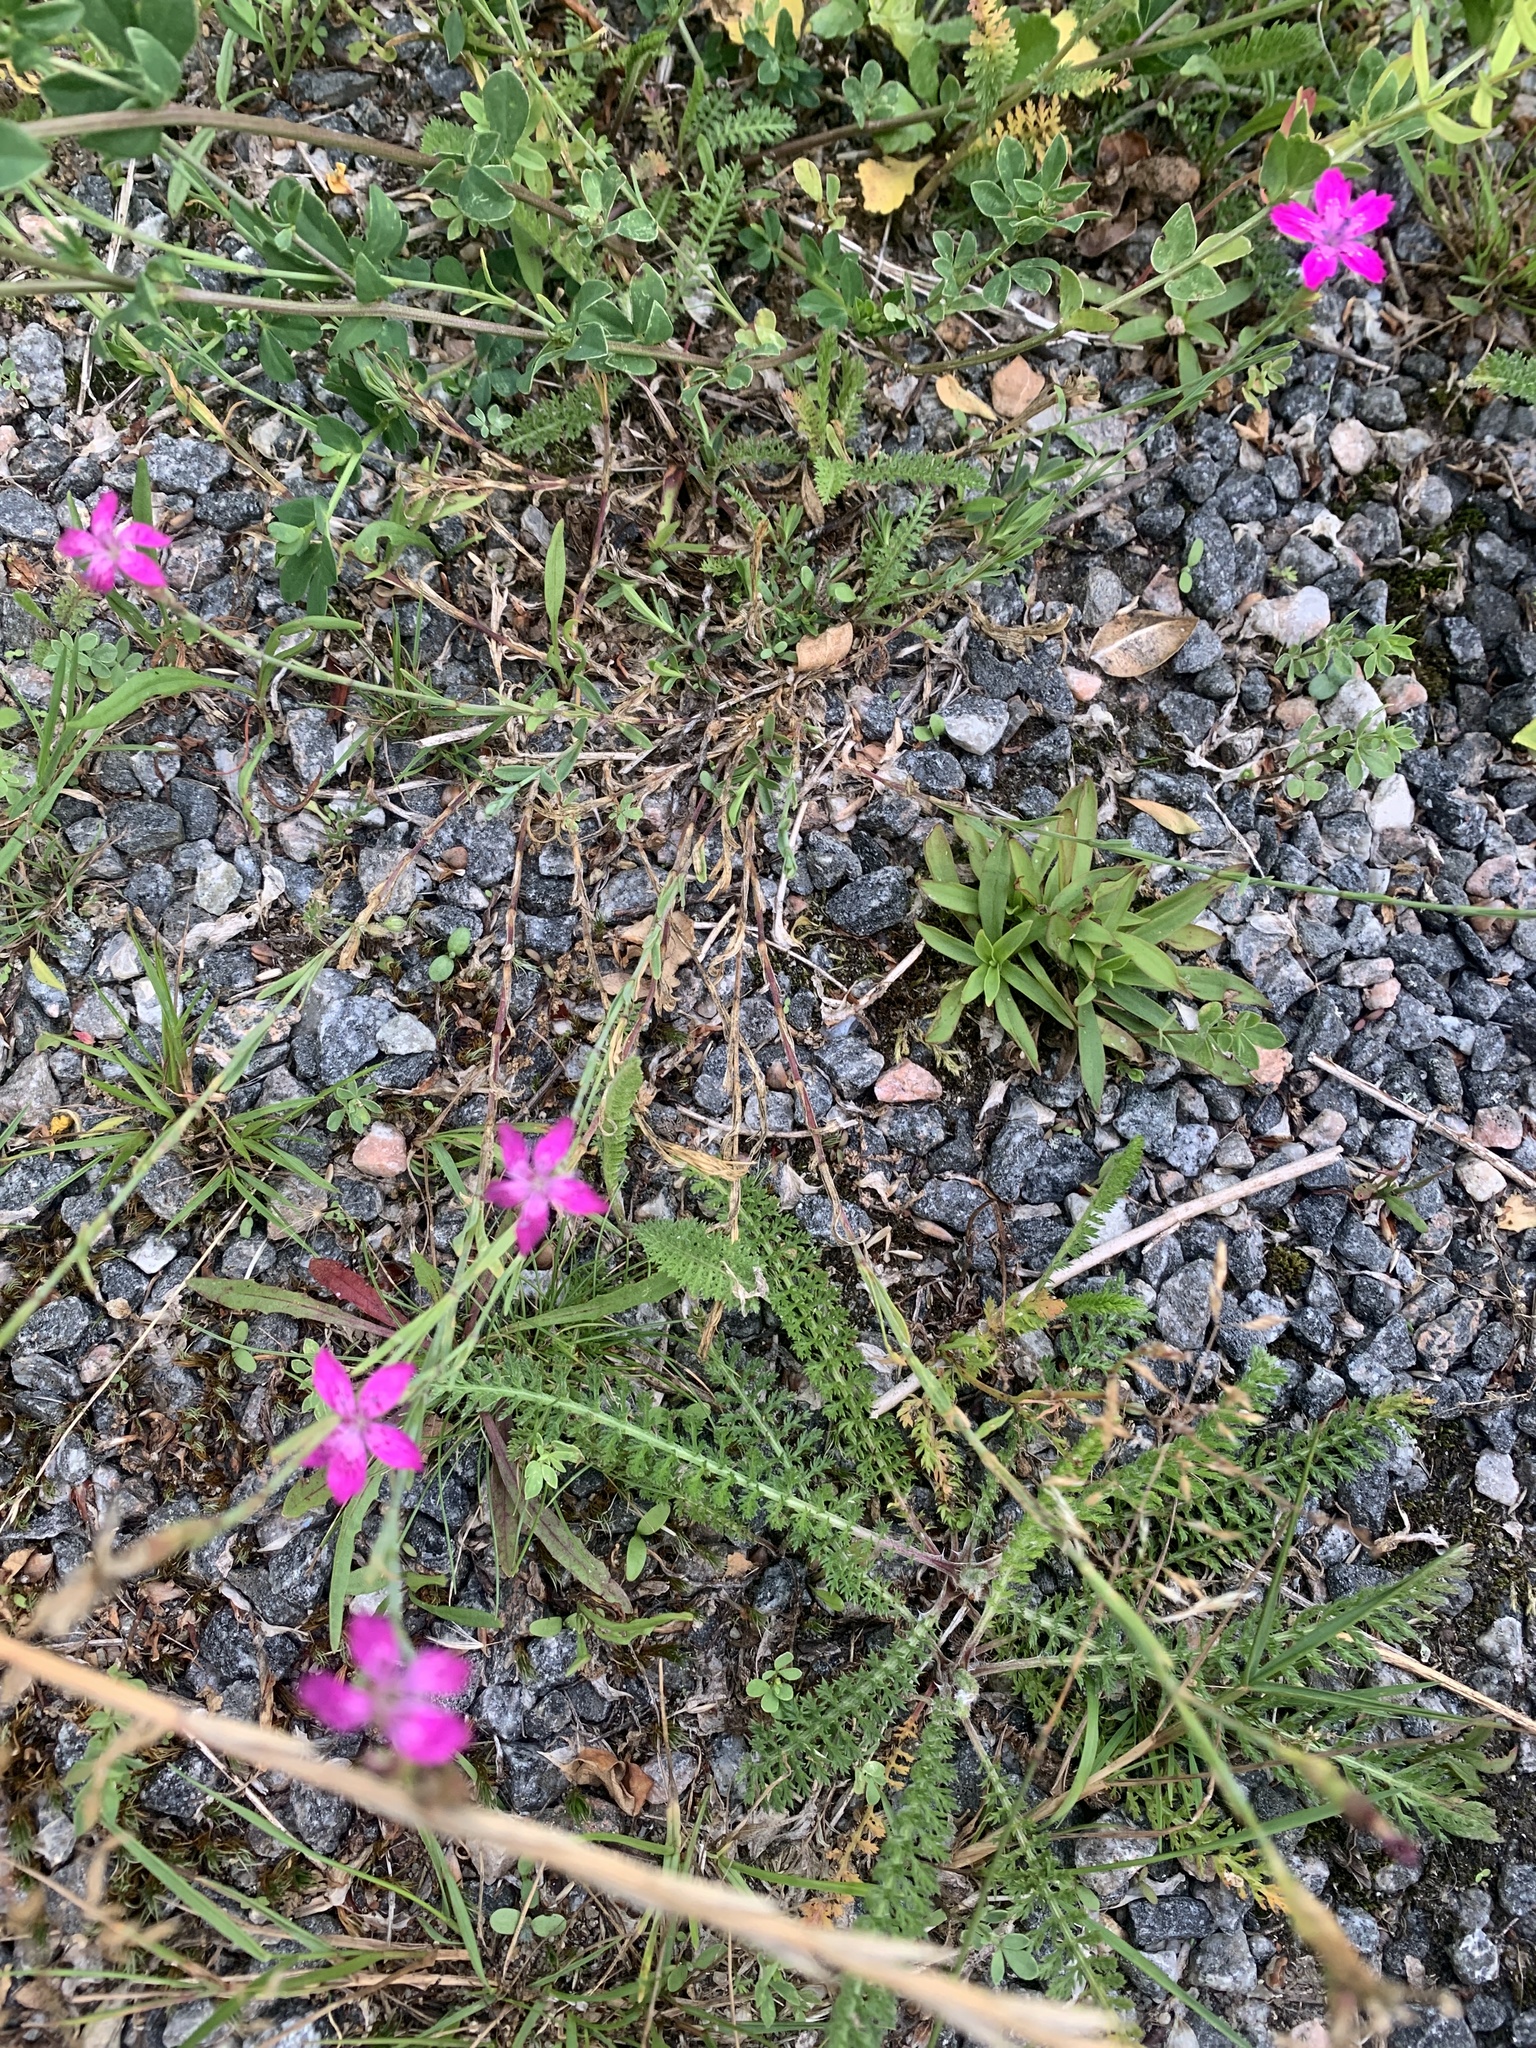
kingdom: Plantae
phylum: Tracheophyta
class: Magnoliopsida
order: Caryophyllales
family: Caryophyllaceae
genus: Dianthus
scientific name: Dianthus deltoides
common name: Maiden pink
